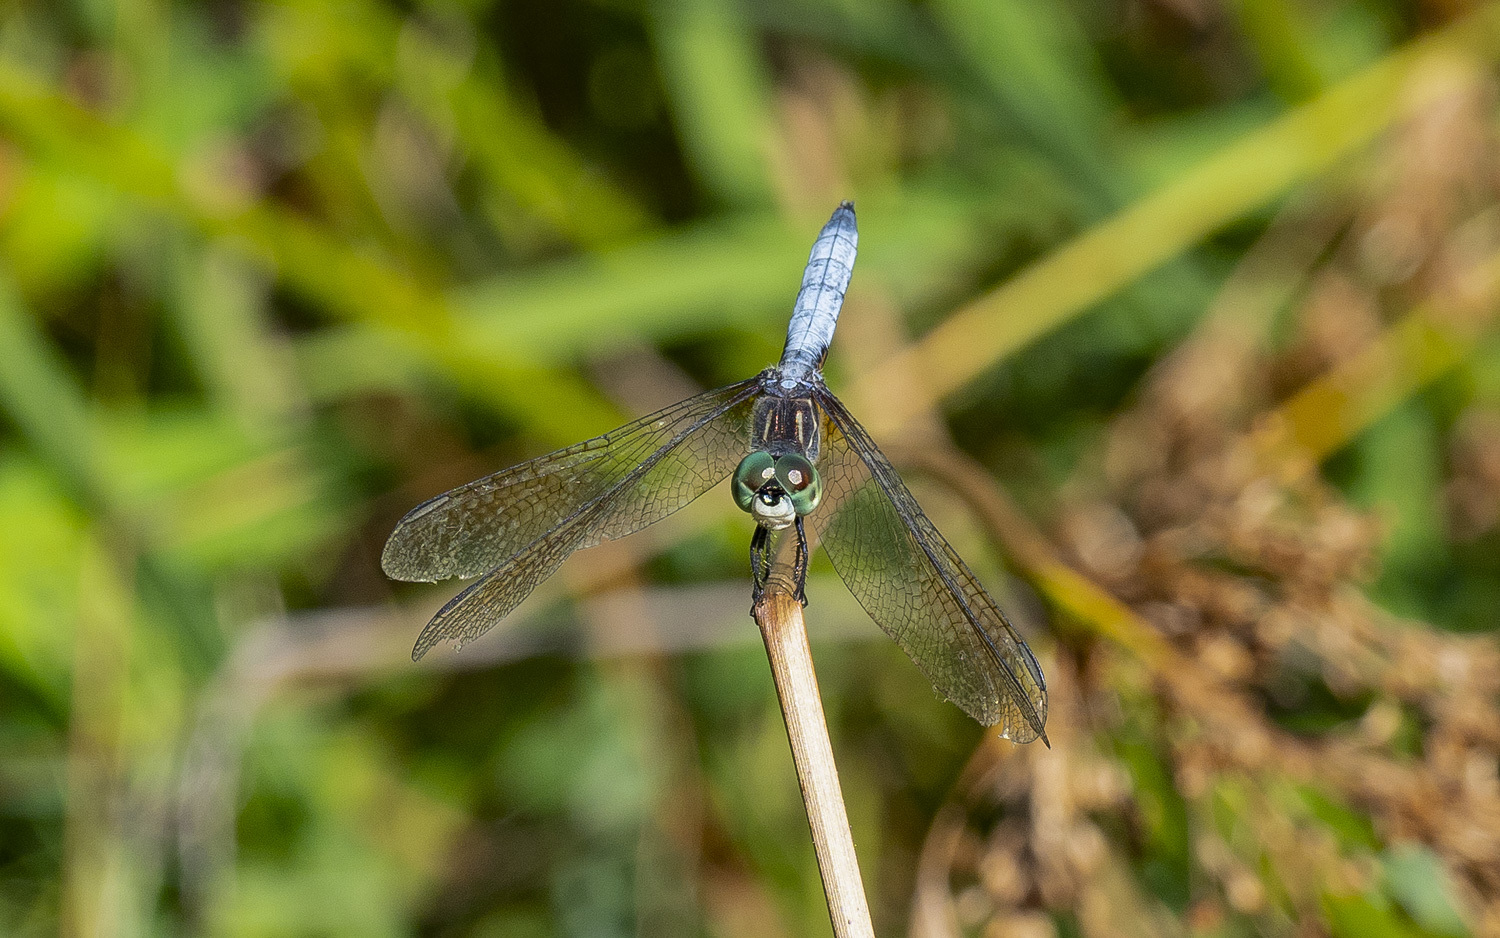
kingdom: Animalia
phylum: Arthropoda
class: Insecta
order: Odonata
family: Libellulidae
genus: Pachydiplax
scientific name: Pachydiplax longipennis
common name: Blue dasher
